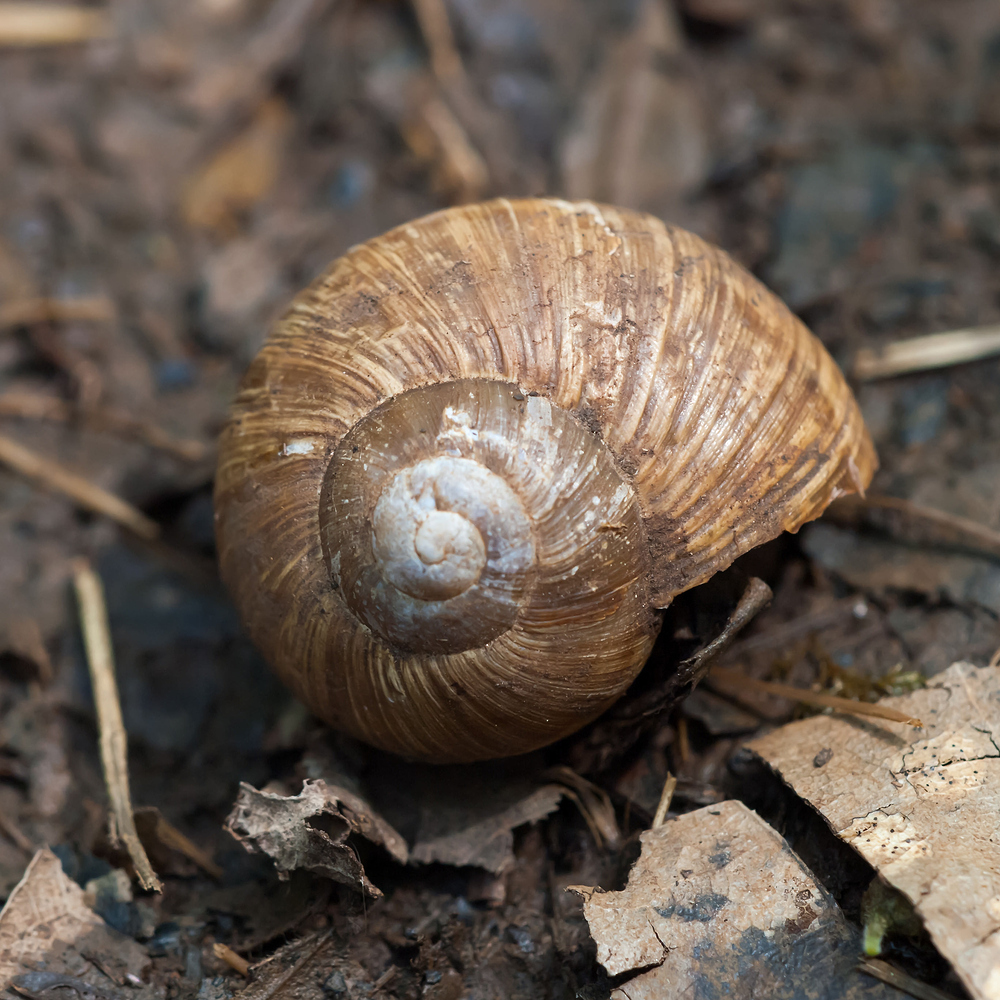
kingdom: Animalia
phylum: Mollusca
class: Gastropoda
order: Stylommatophora
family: Helicidae
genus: Helix
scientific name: Helix pomatia
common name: Roman snail
